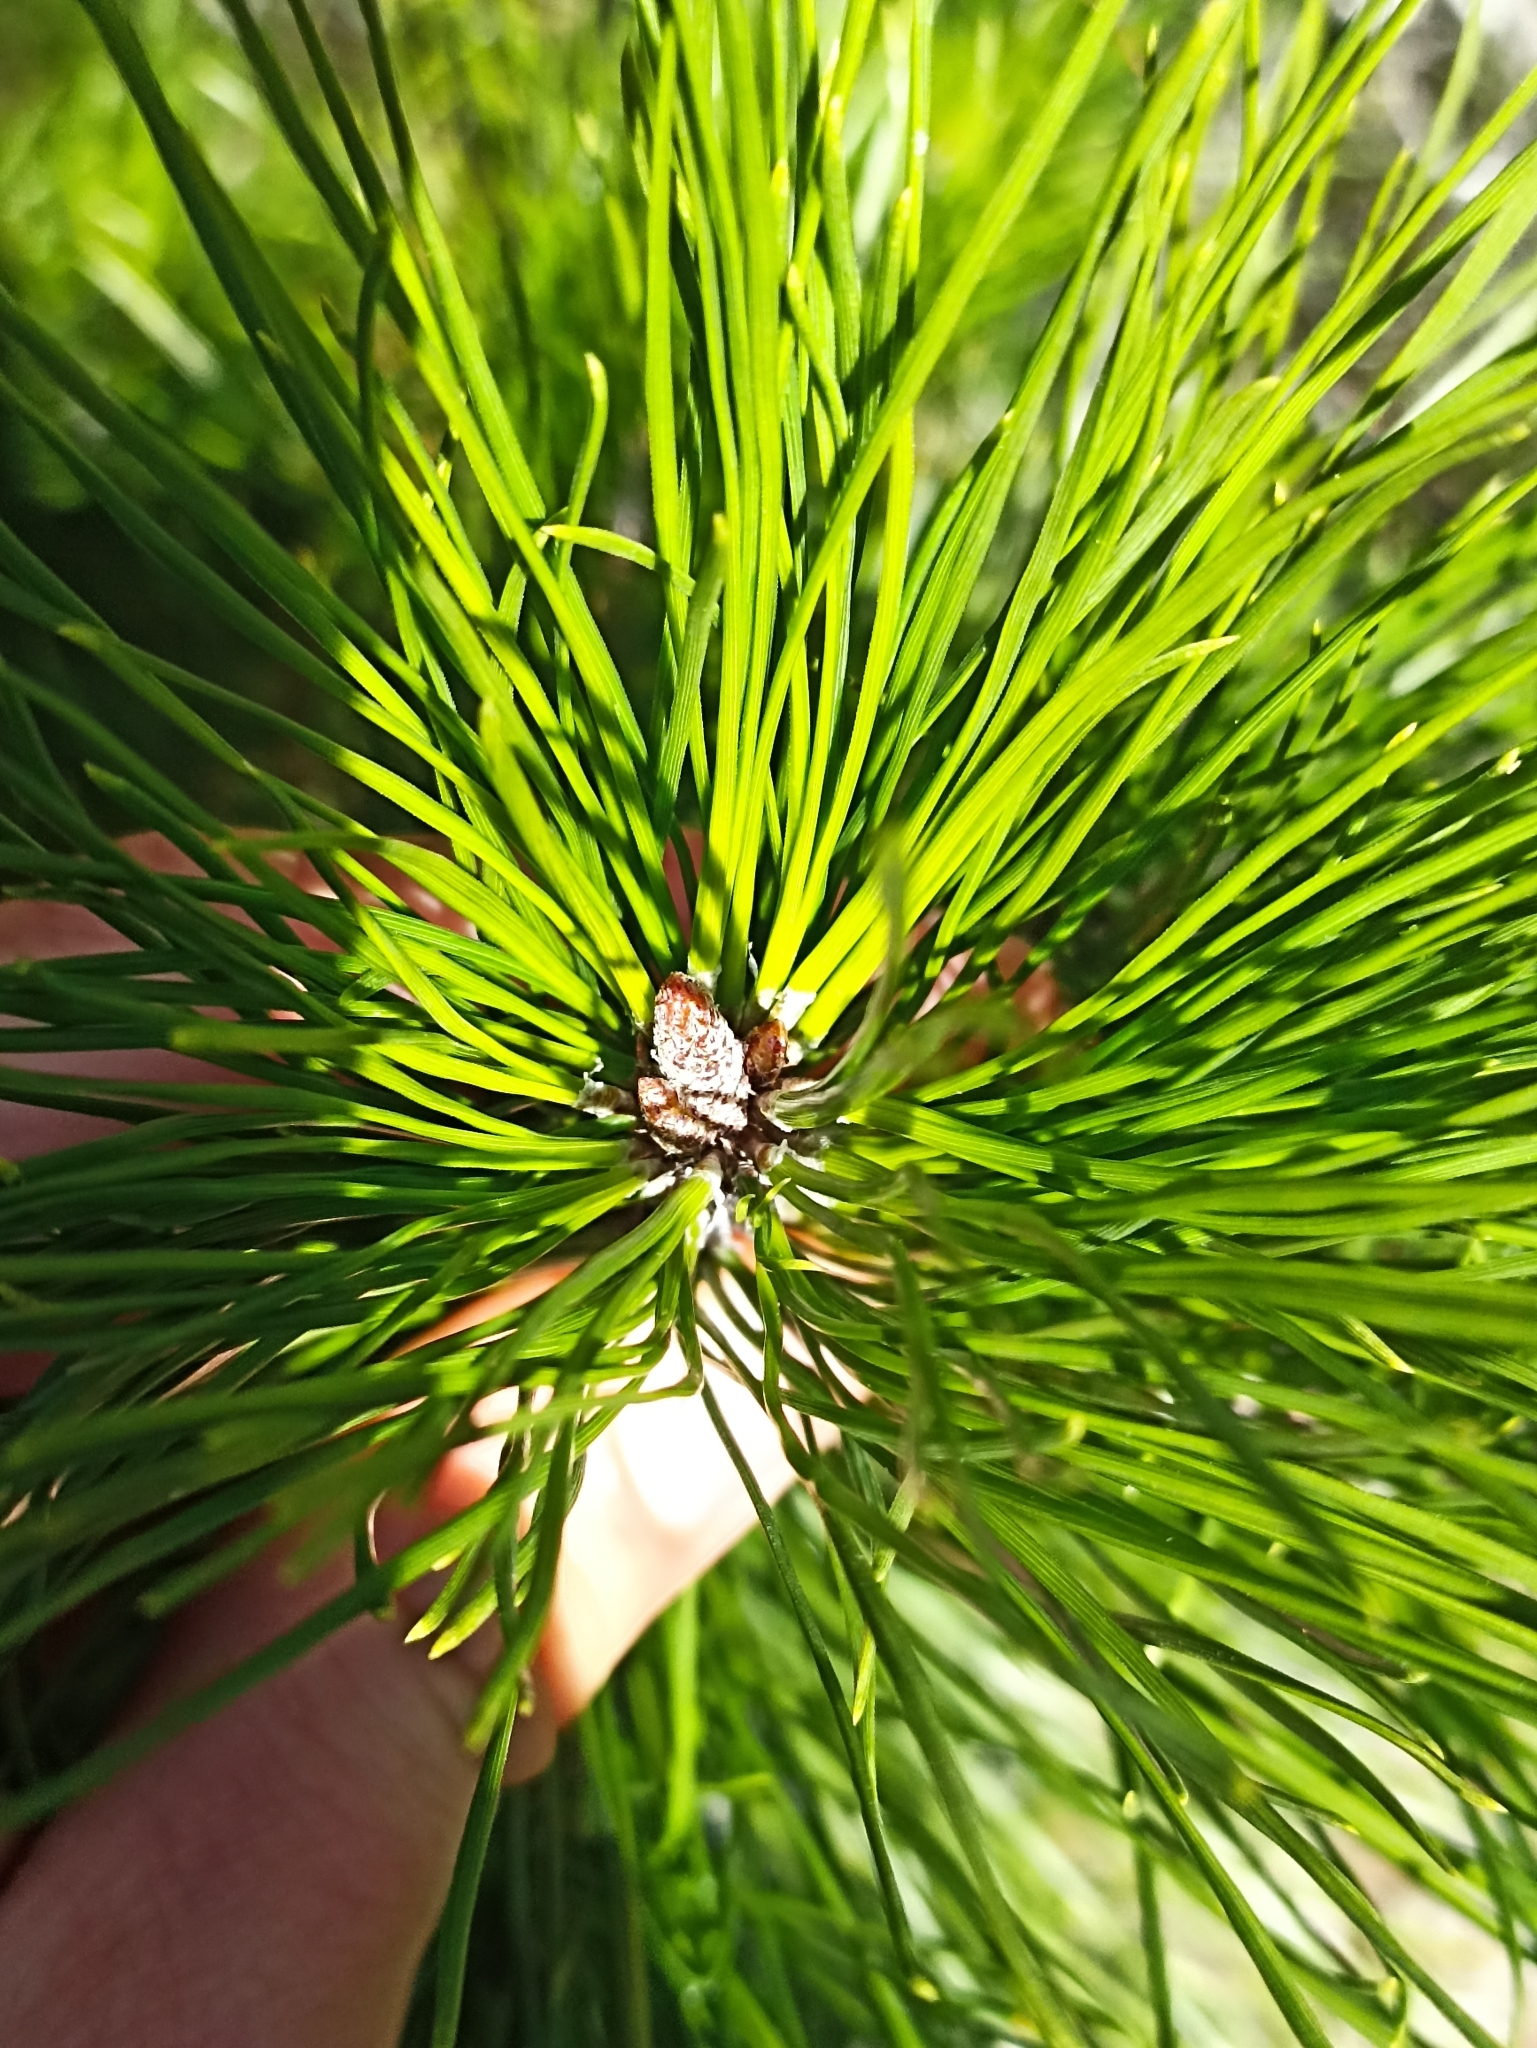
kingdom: Plantae
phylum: Tracheophyta
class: Pinopsida
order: Pinales
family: Pinaceae
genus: Pinus
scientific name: Pinus radiata
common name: Monterey pine
